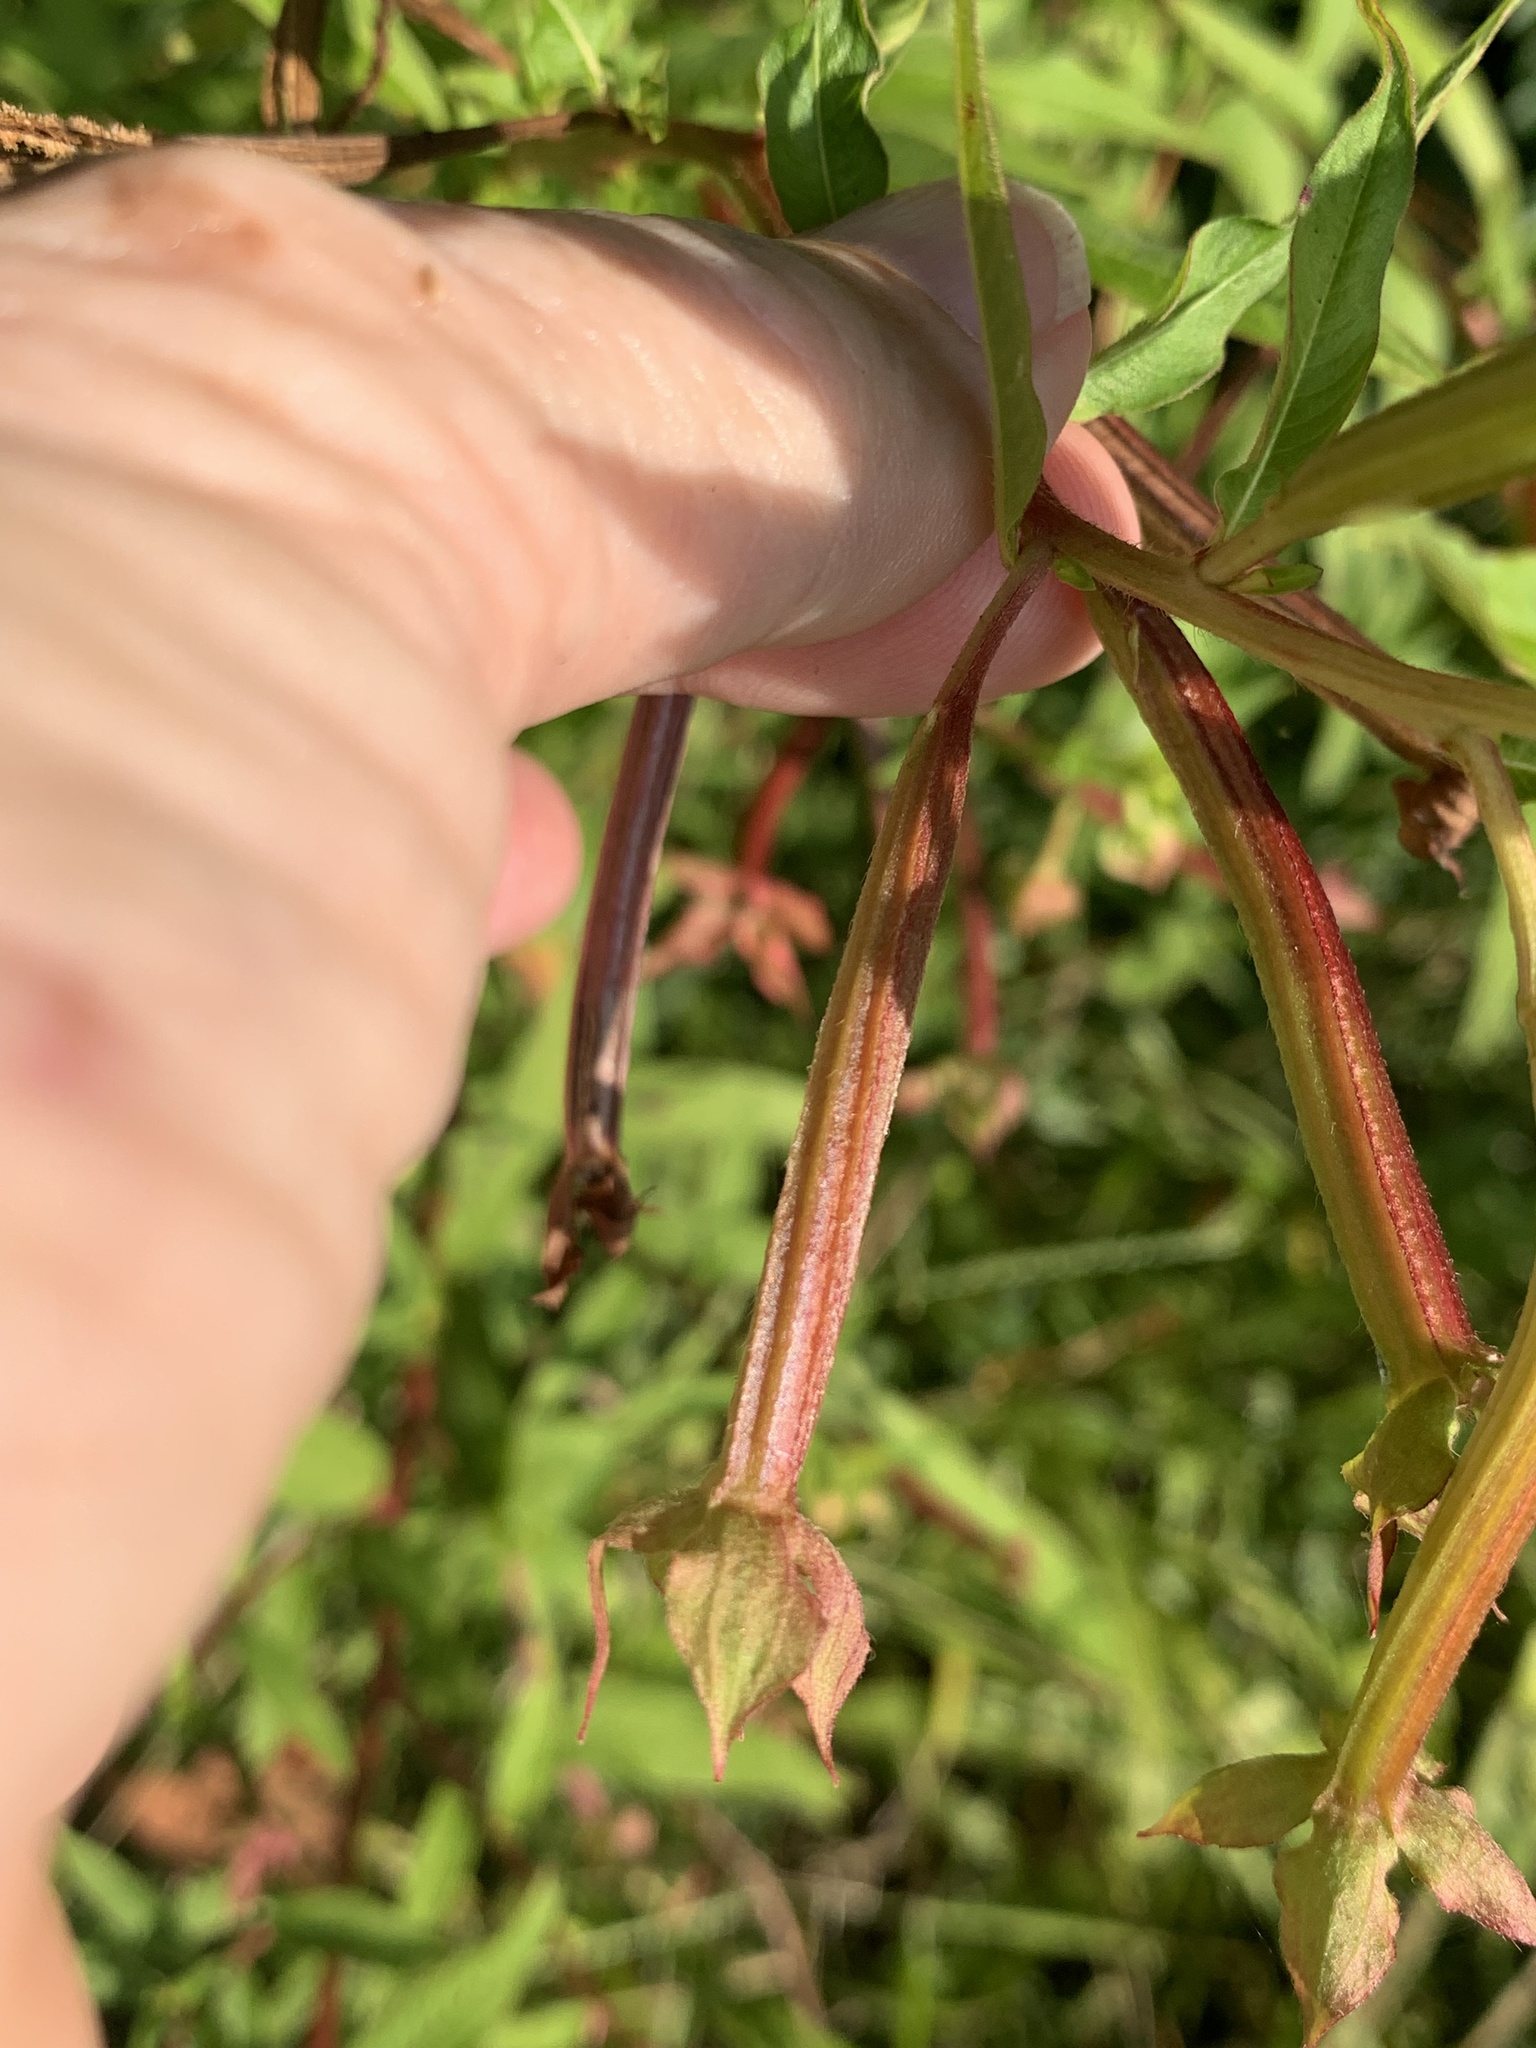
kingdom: Plantae
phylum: Tracheophyta
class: Magnoliopsida
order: Myrtales
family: Onagraceae
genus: Ludwigia
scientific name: Ludwigia octovalvis
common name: Water-primrose
